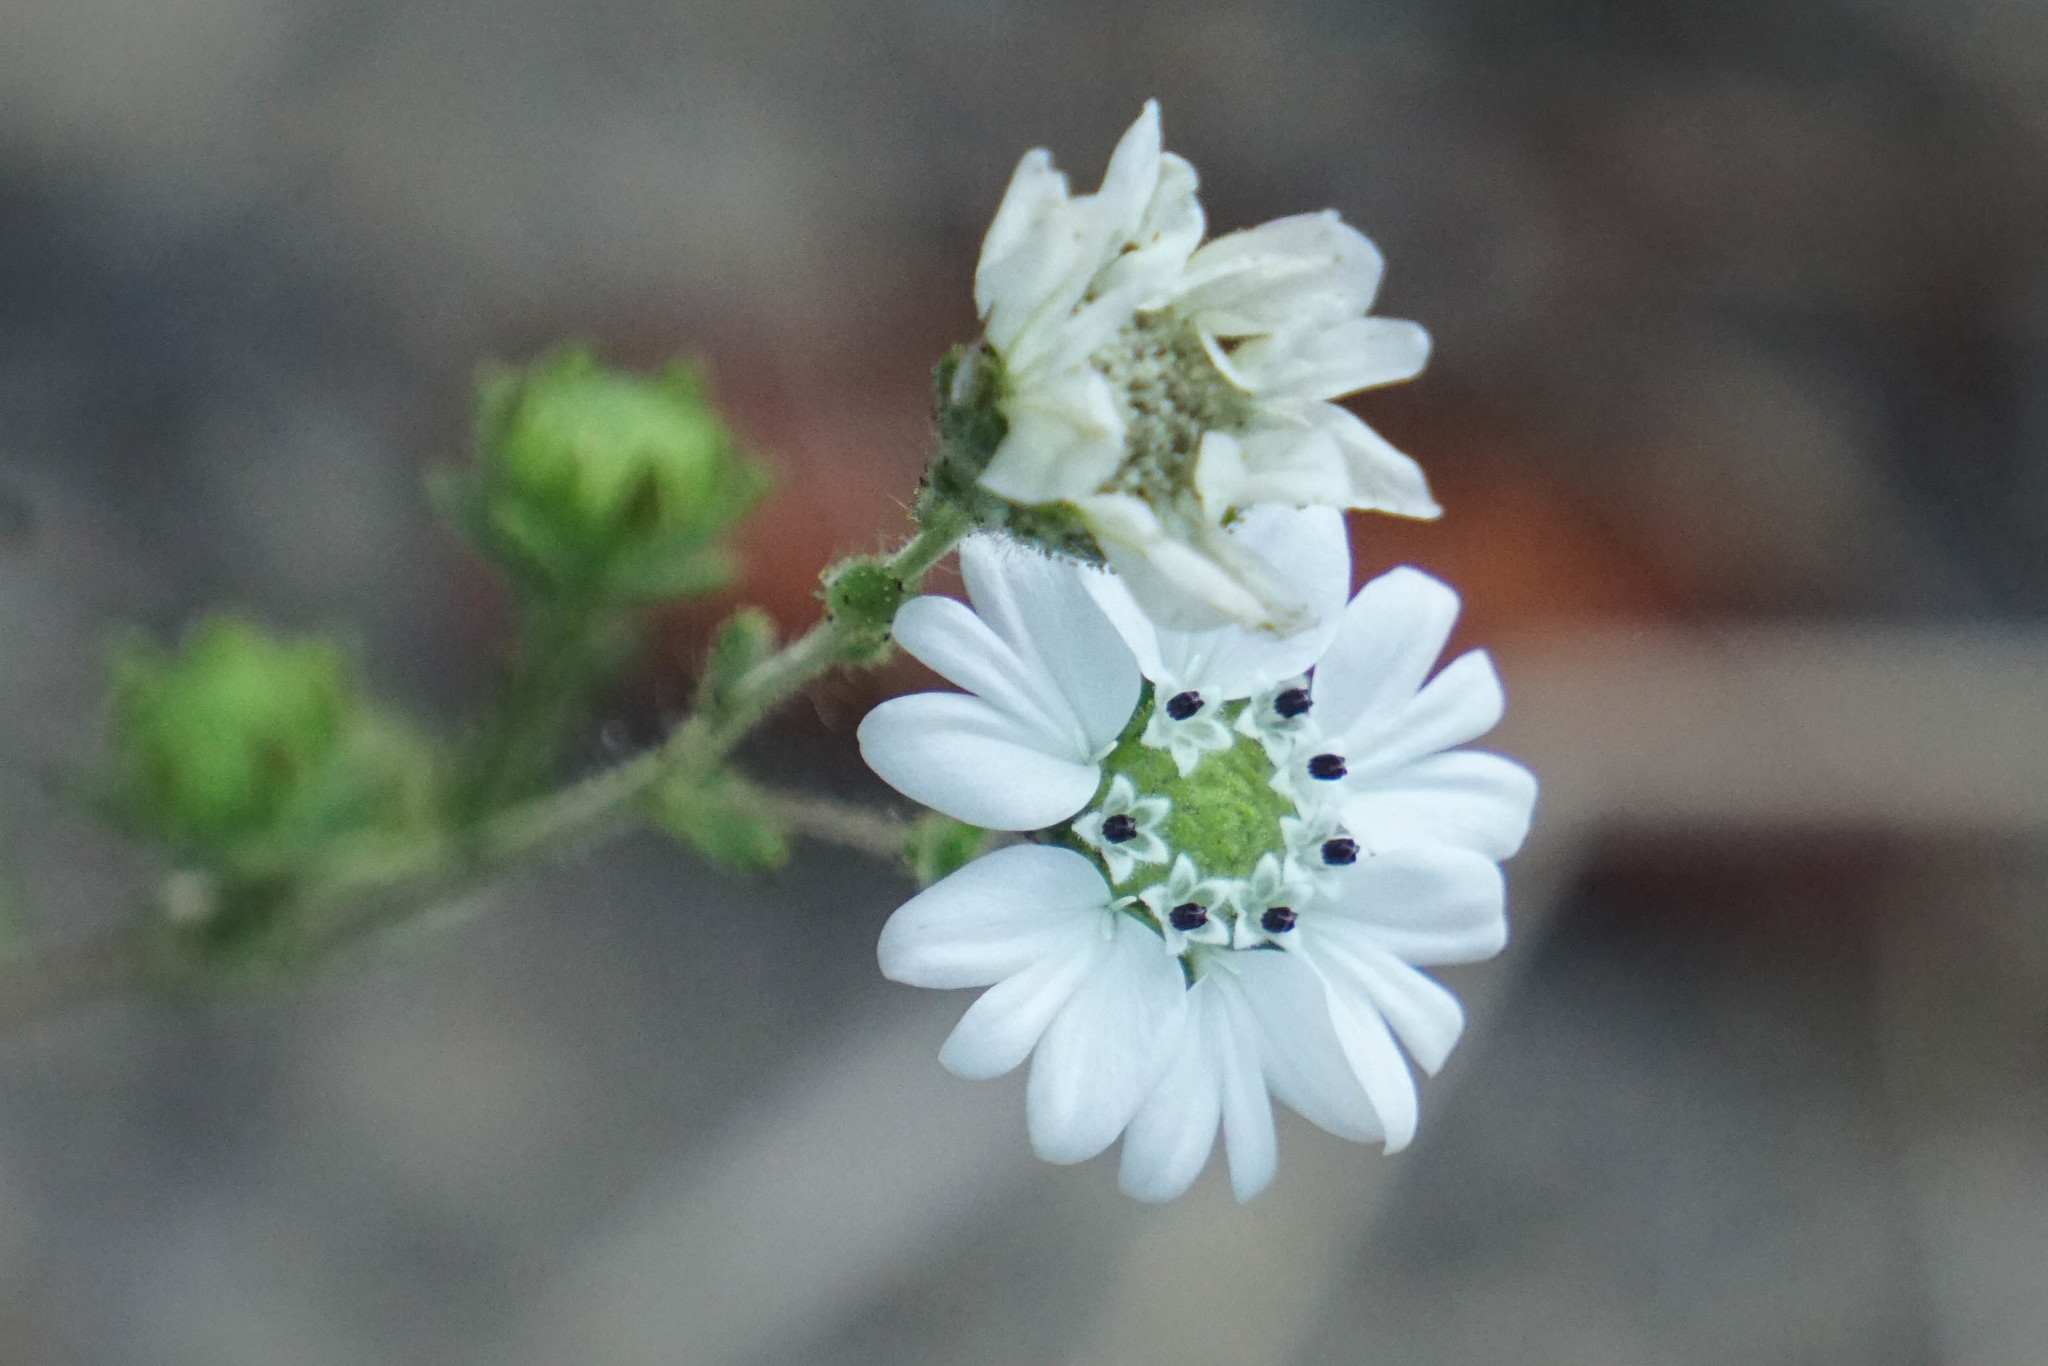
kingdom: Plantae
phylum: Tracheophyta
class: Magnoliopsida
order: Asterales
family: Asteraceae
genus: Hemizonia
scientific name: Hemizonia congesta
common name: Hayfield tarweed
